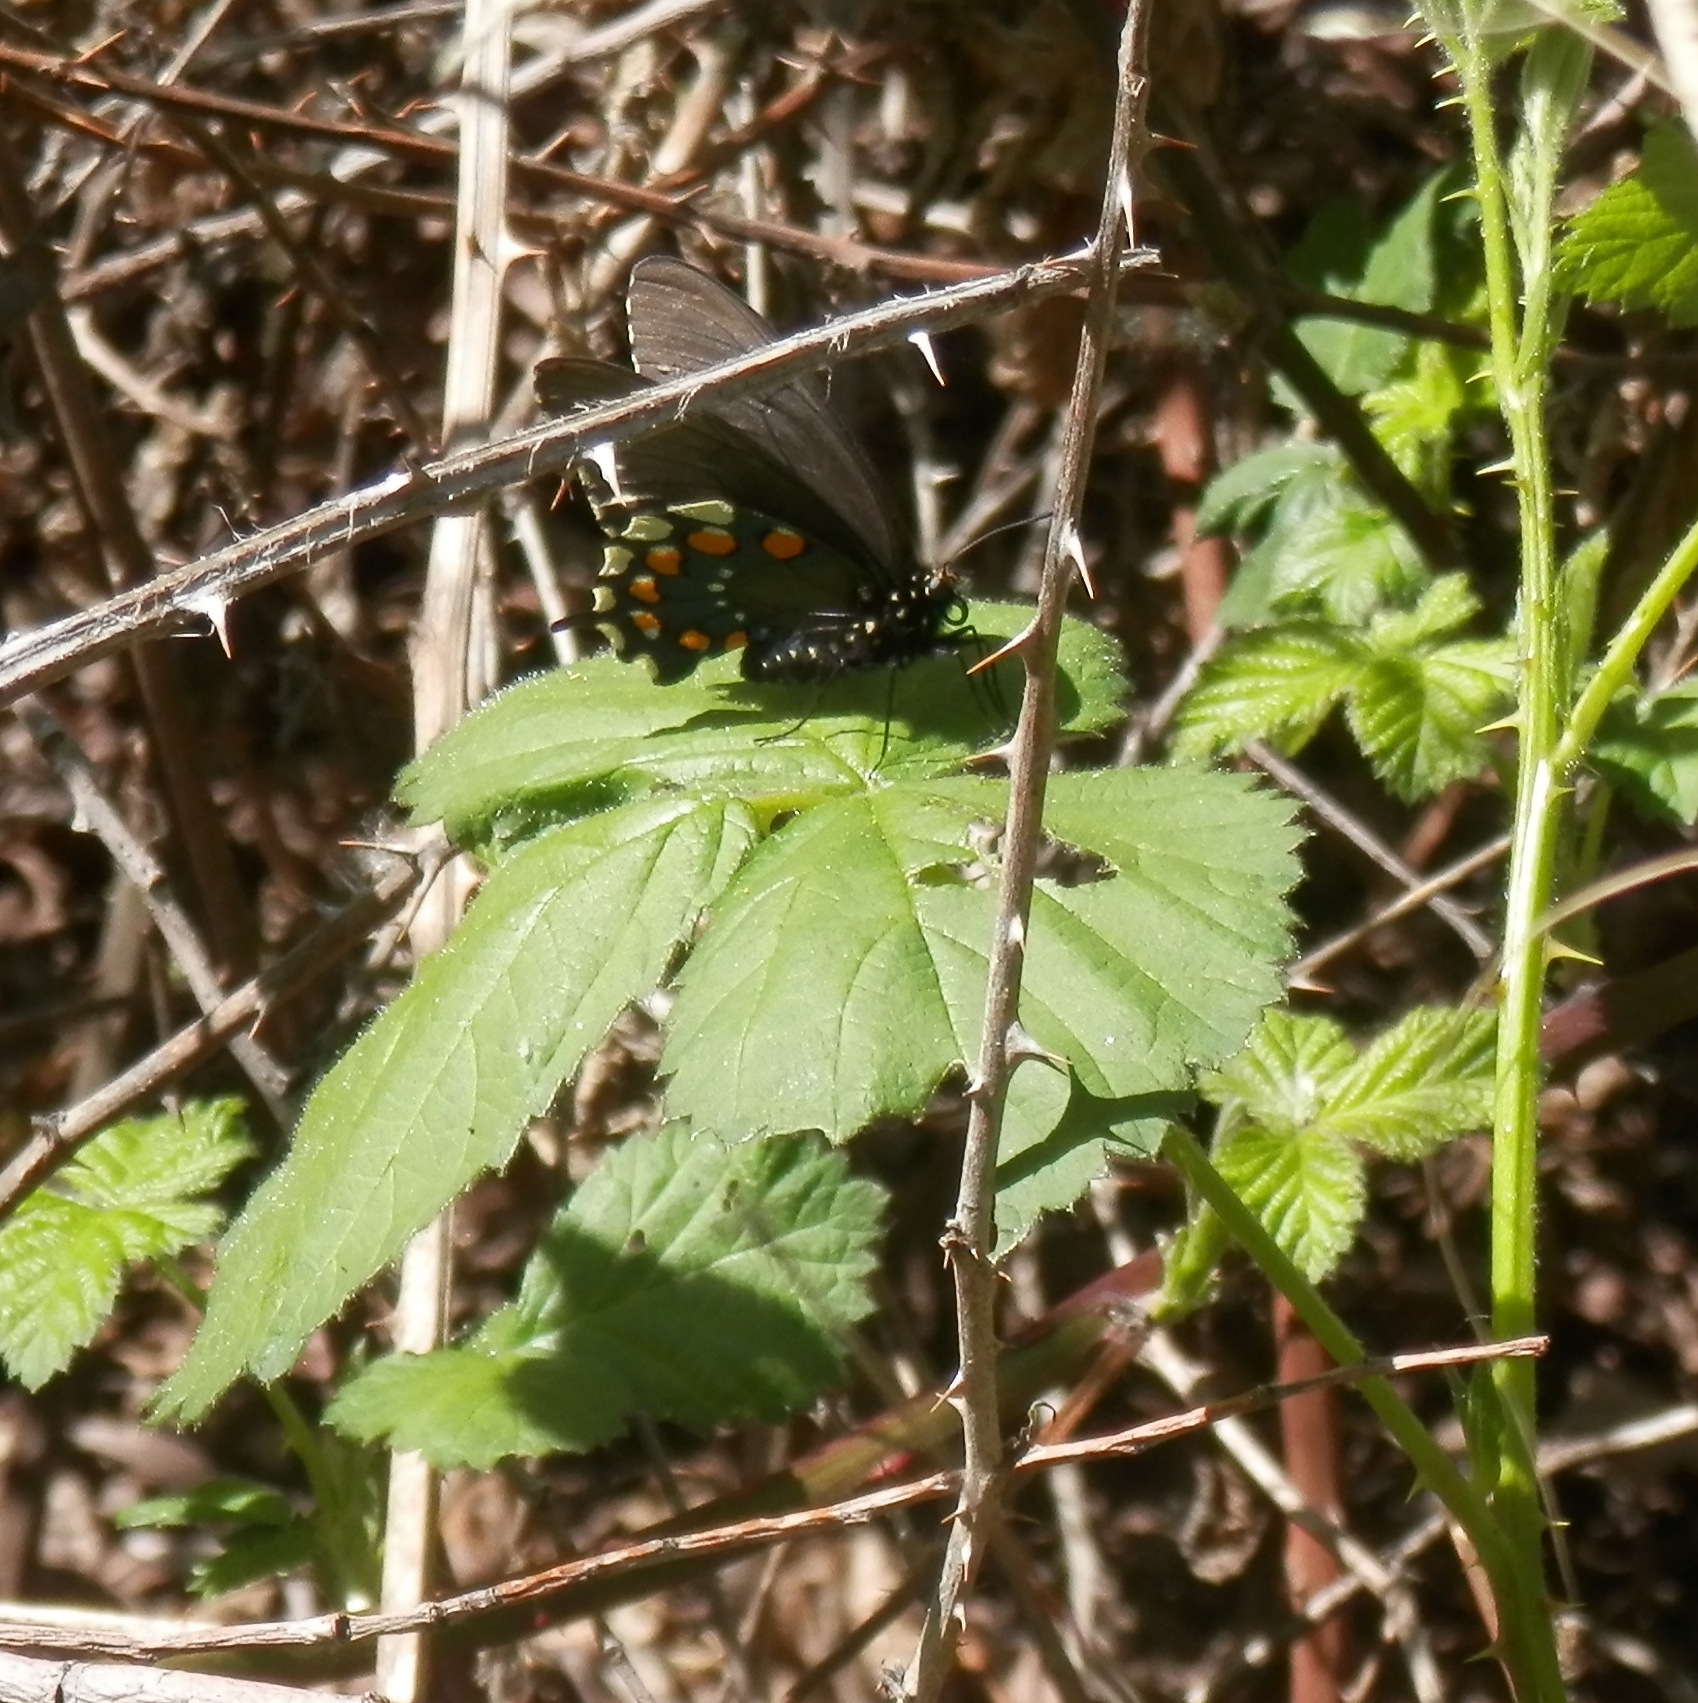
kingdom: Animalia
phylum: Arthropoda
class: Insecta
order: Lepidoptera
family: Papilionidae
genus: Battus
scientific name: Battus philenor
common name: Pipevine swallowtail
